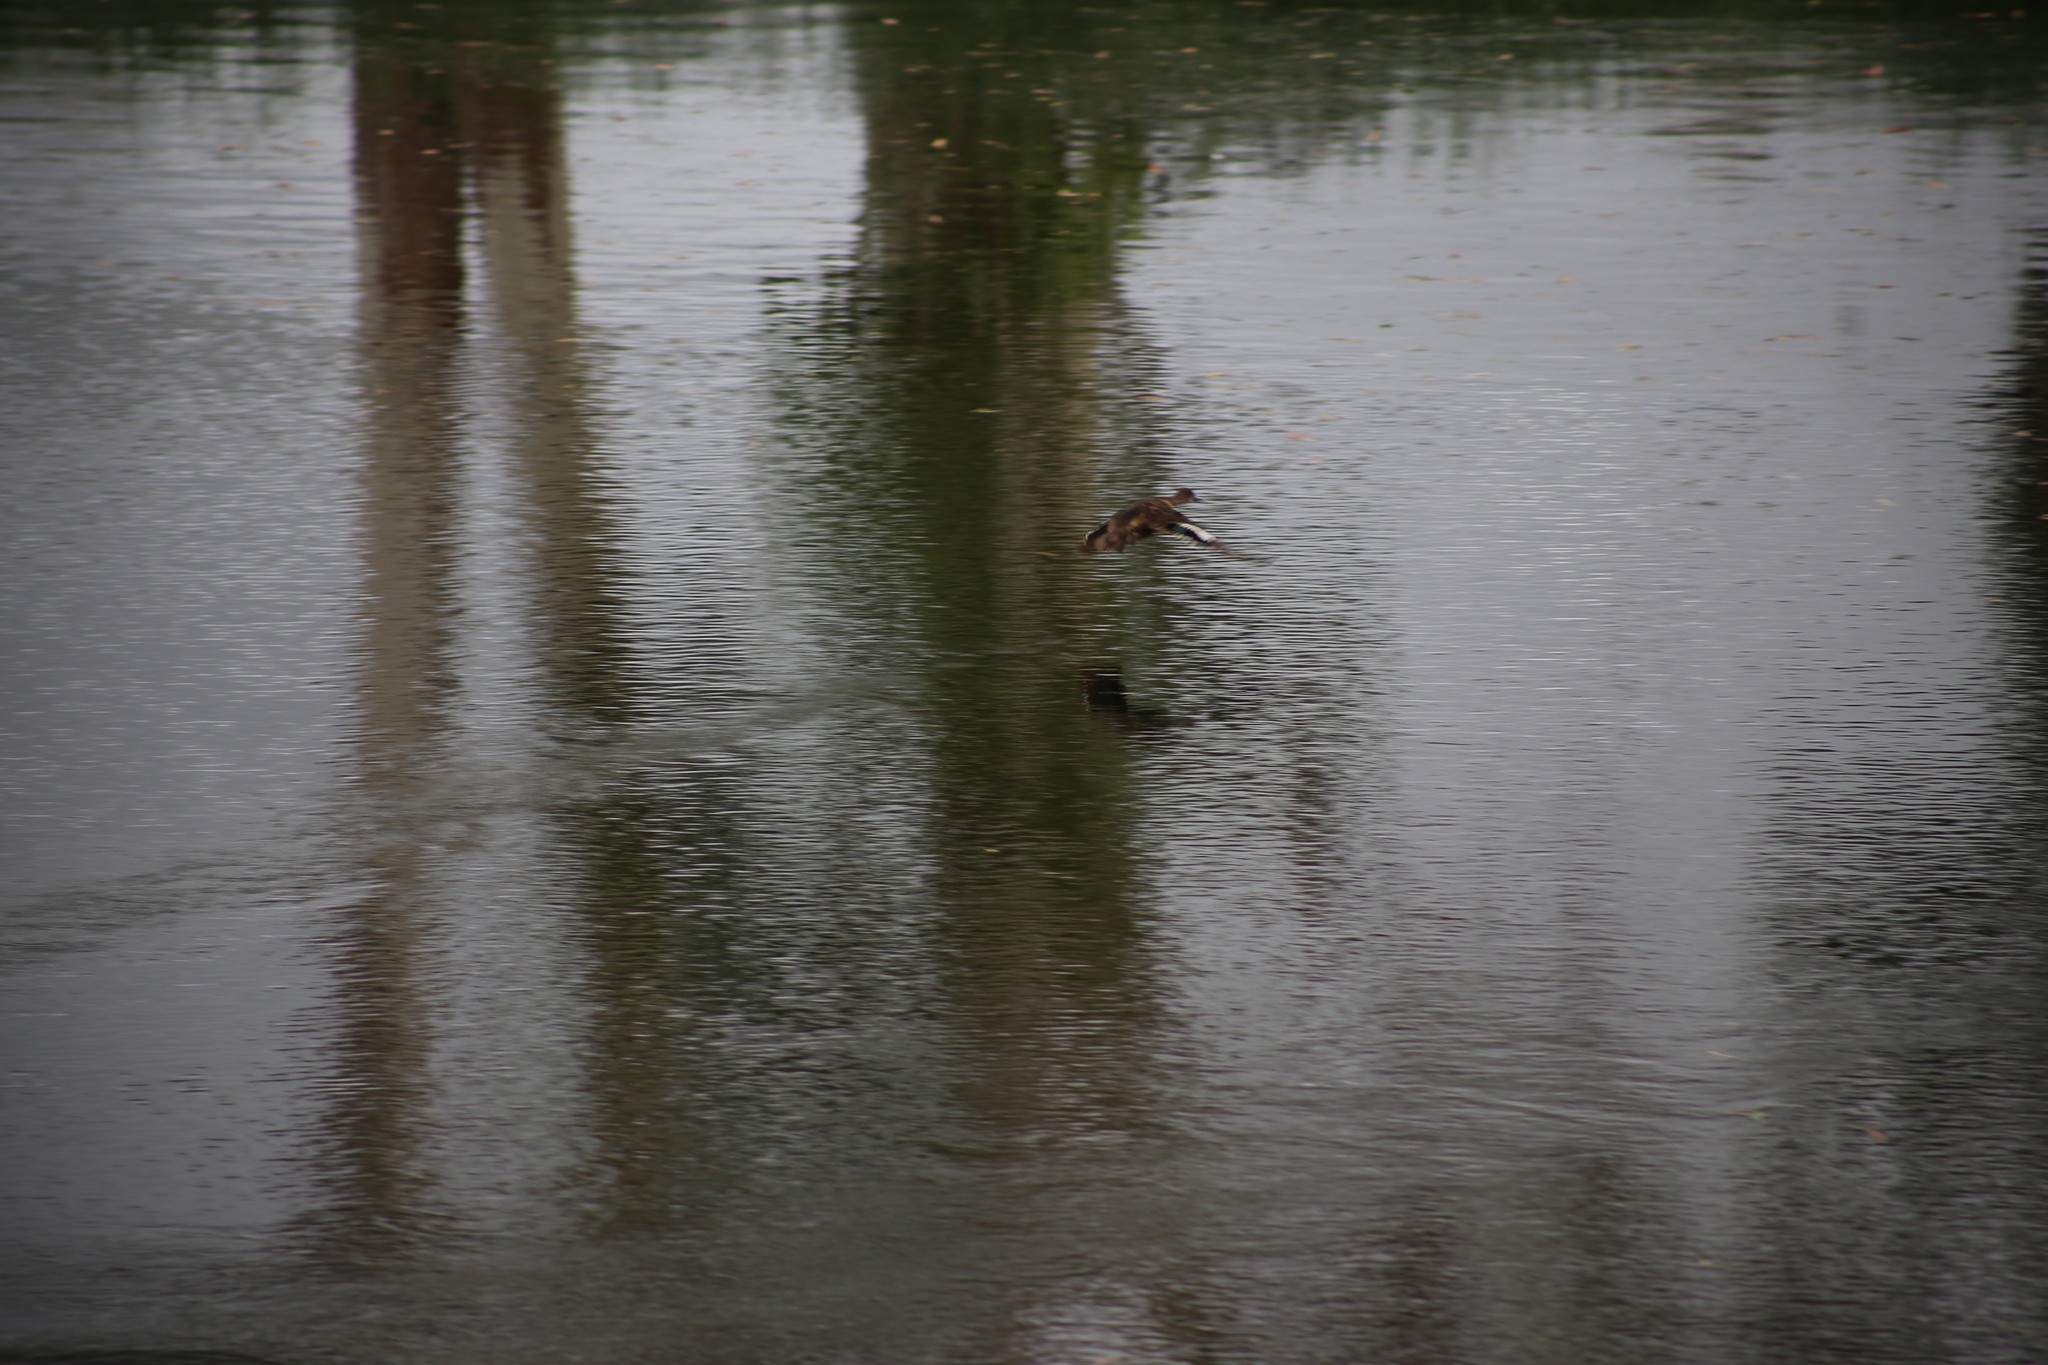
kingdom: Animalia
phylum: Chordata
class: Aves
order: Anseriformes
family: Anatidae
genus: Anas
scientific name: Anas castanea
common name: Chestnut teal
